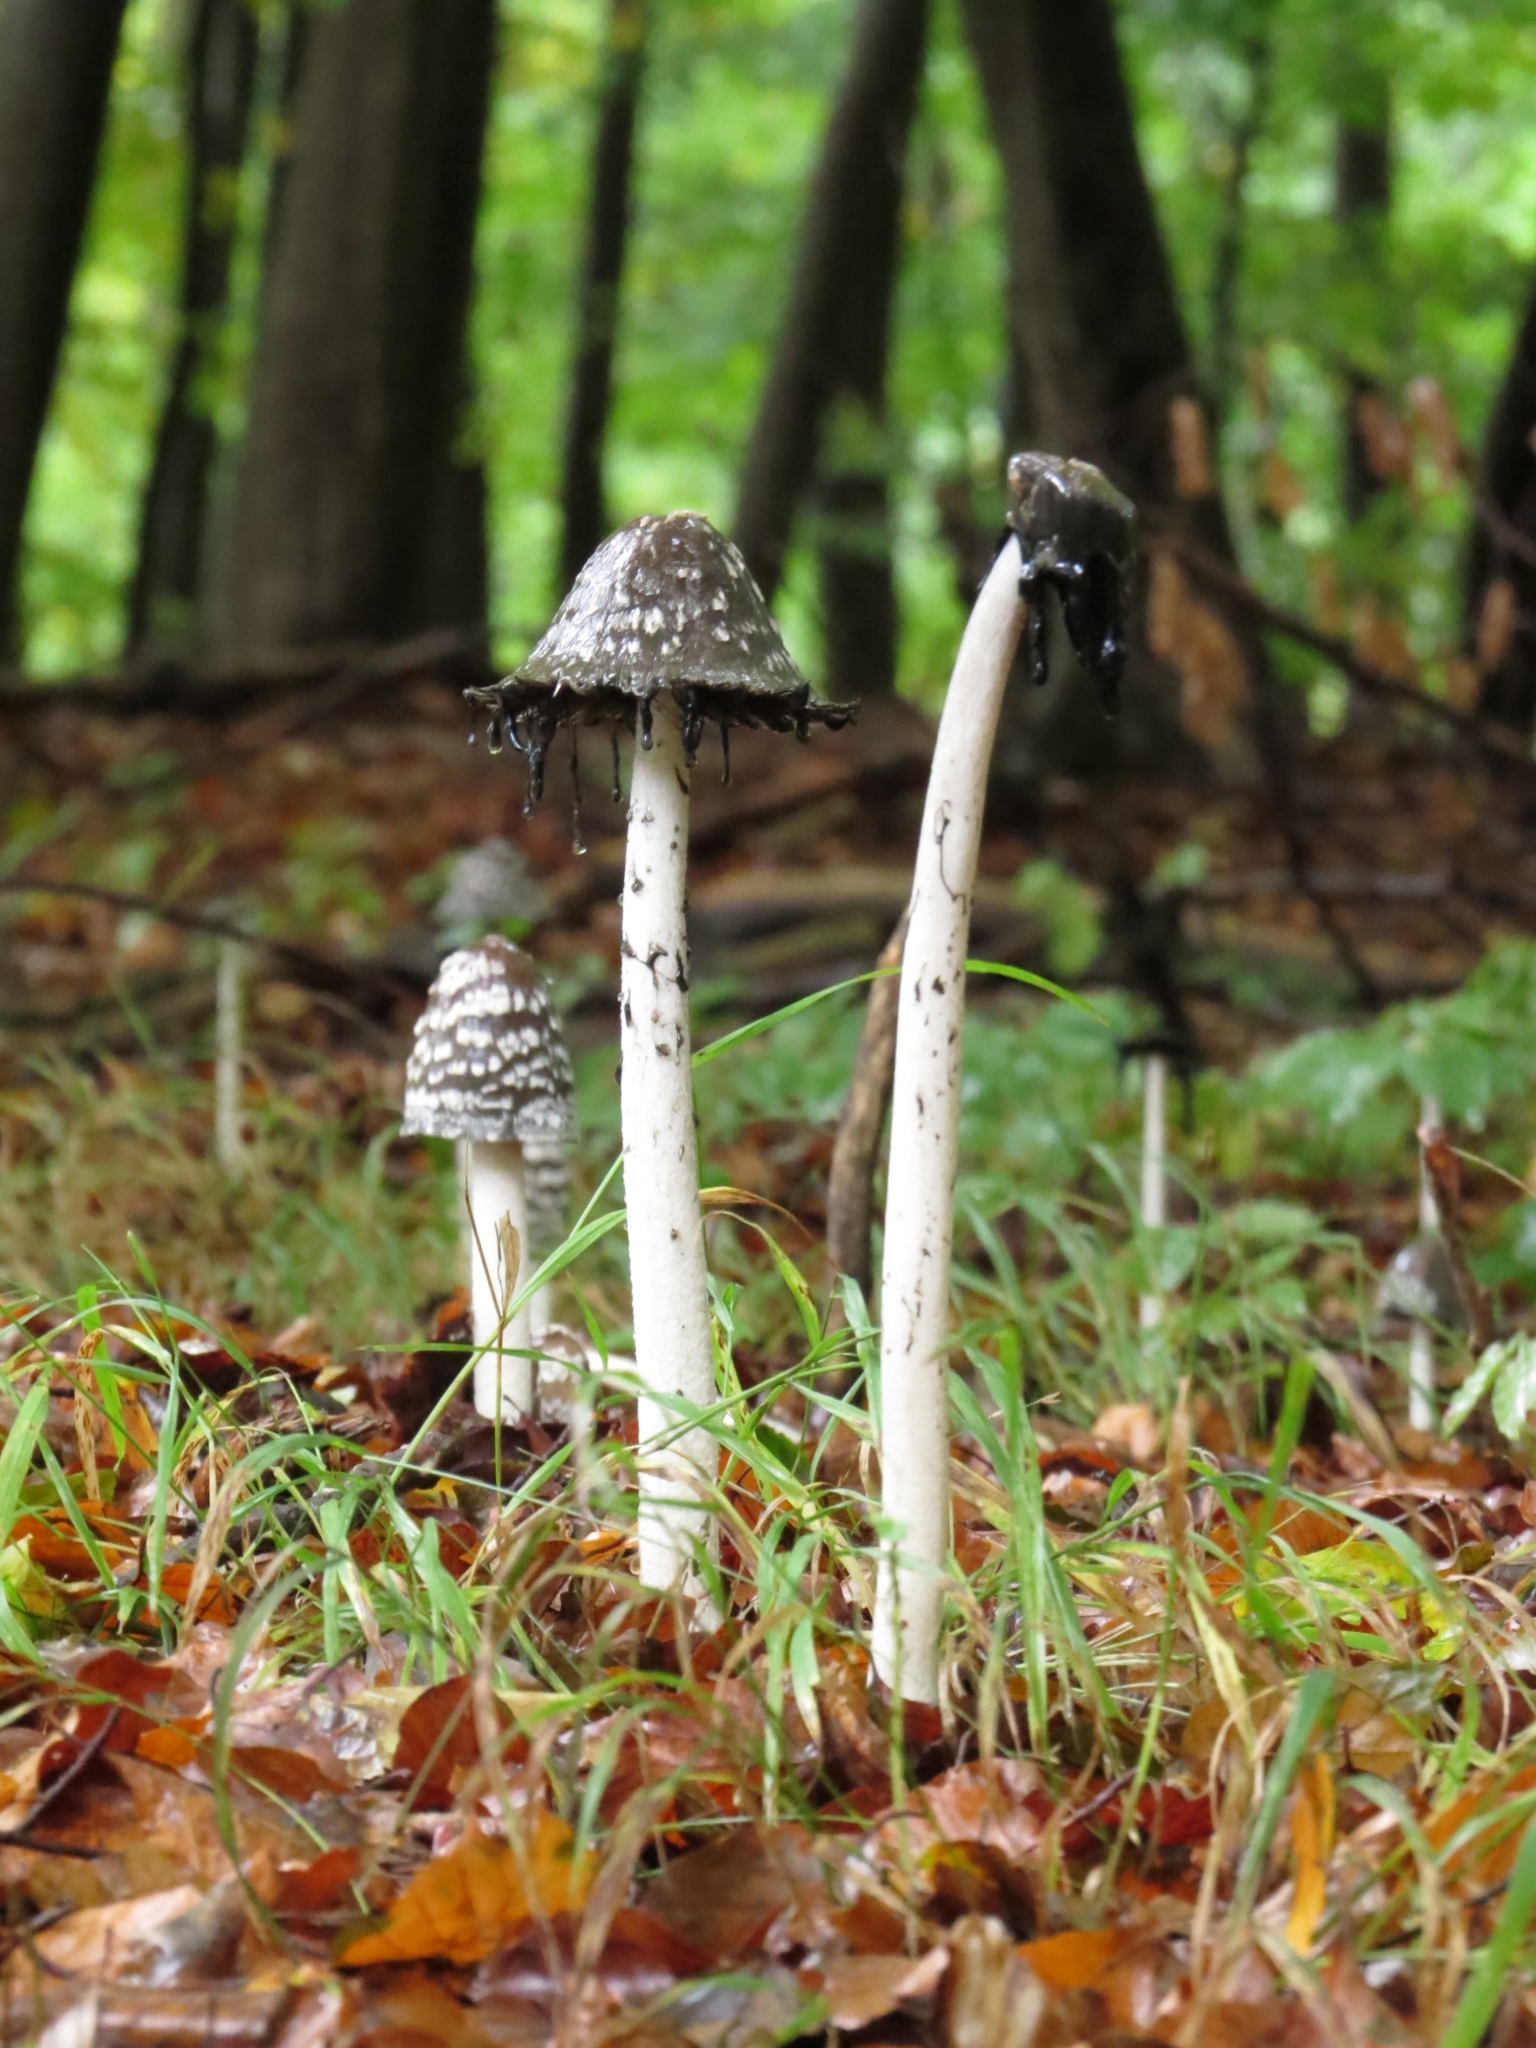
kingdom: Fungi
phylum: Basidiomycota
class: Agaricomycetes
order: Agaricales
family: Psathyrellaceae
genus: Coprinopsis
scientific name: Coprinopsis picacea
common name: Magpie inkcap
